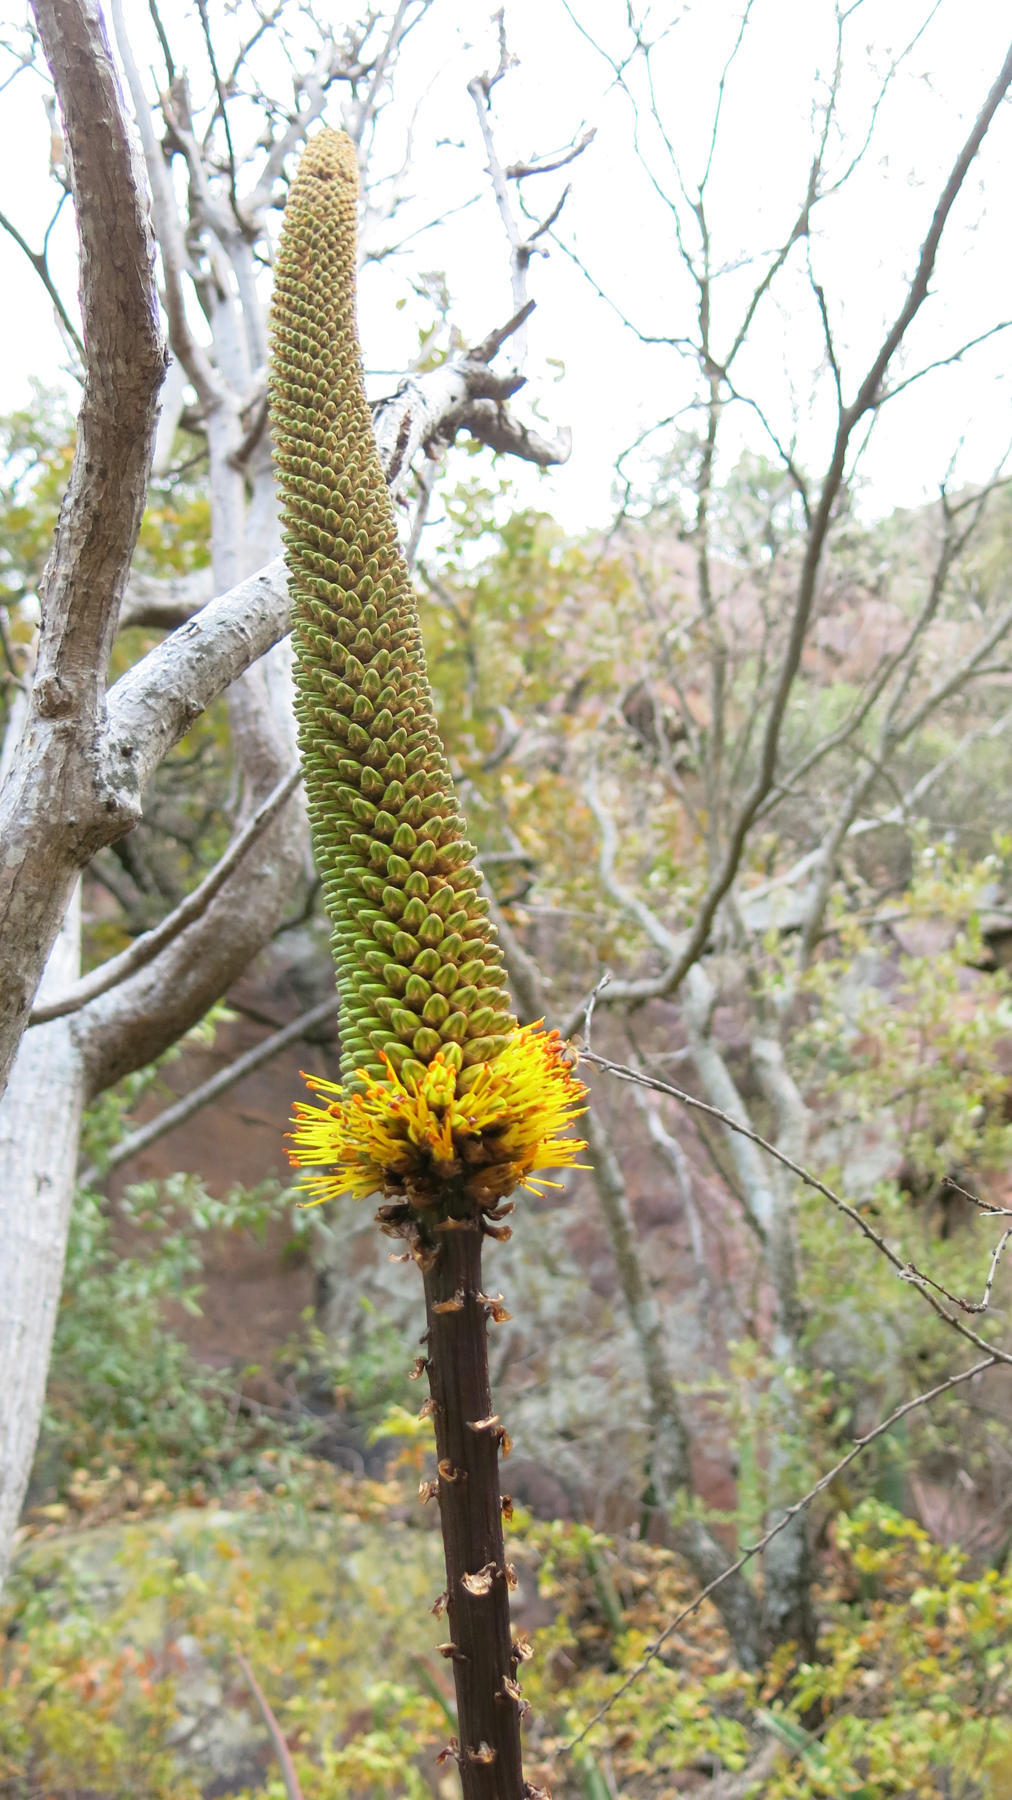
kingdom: Plantae
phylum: Tracheophyta
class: Liliopsida
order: Asparagales
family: Asphodelaceae
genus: Aloe
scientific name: Aloe spicata
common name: Gazaland aloe
